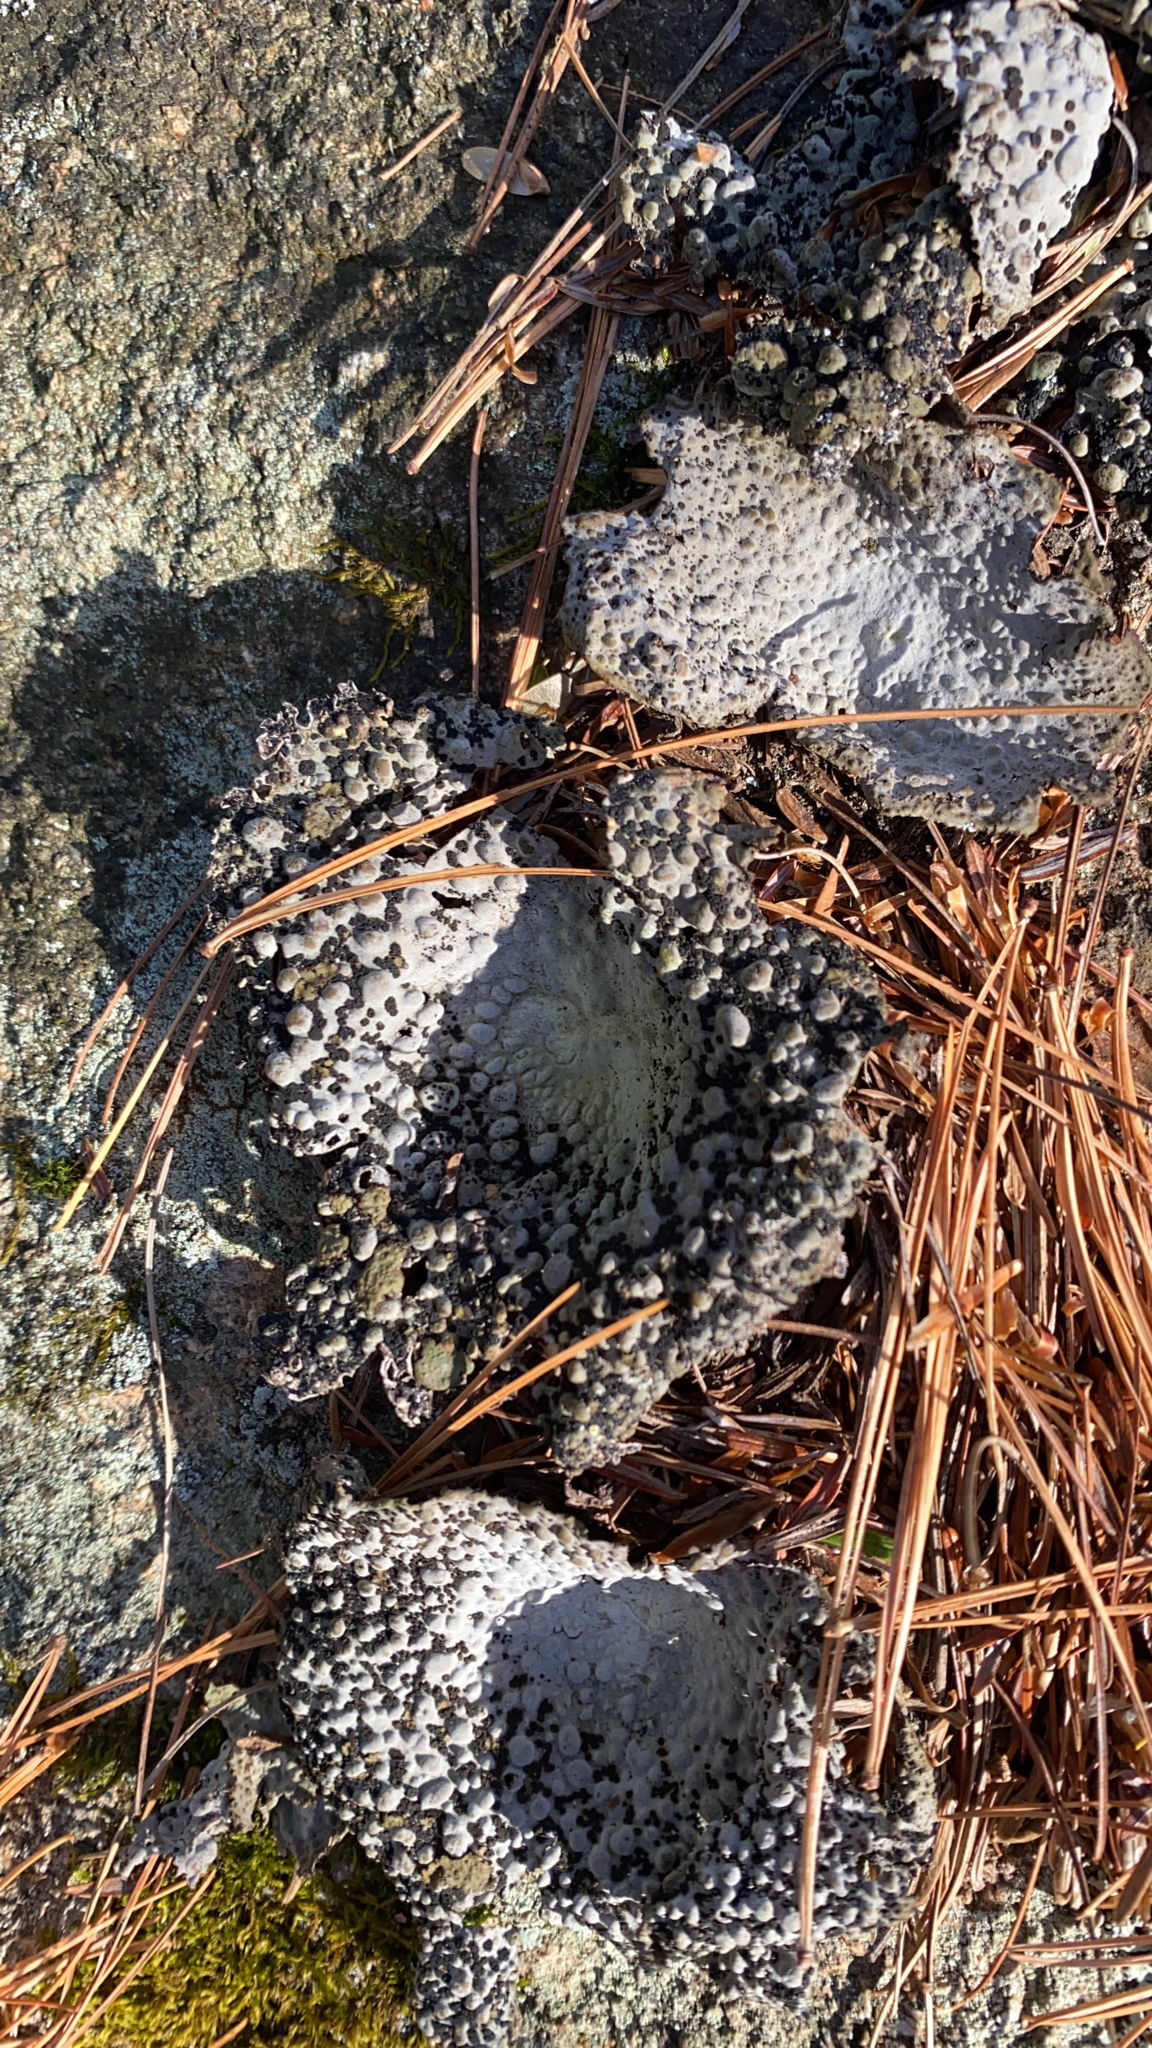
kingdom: Fungi
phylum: Ascomycota
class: Lecanoromycetes
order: Umbilicariales
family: Umbilicariaceae
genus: Lasallia
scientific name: Lasallia papulosa
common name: Common toadskin lichen
